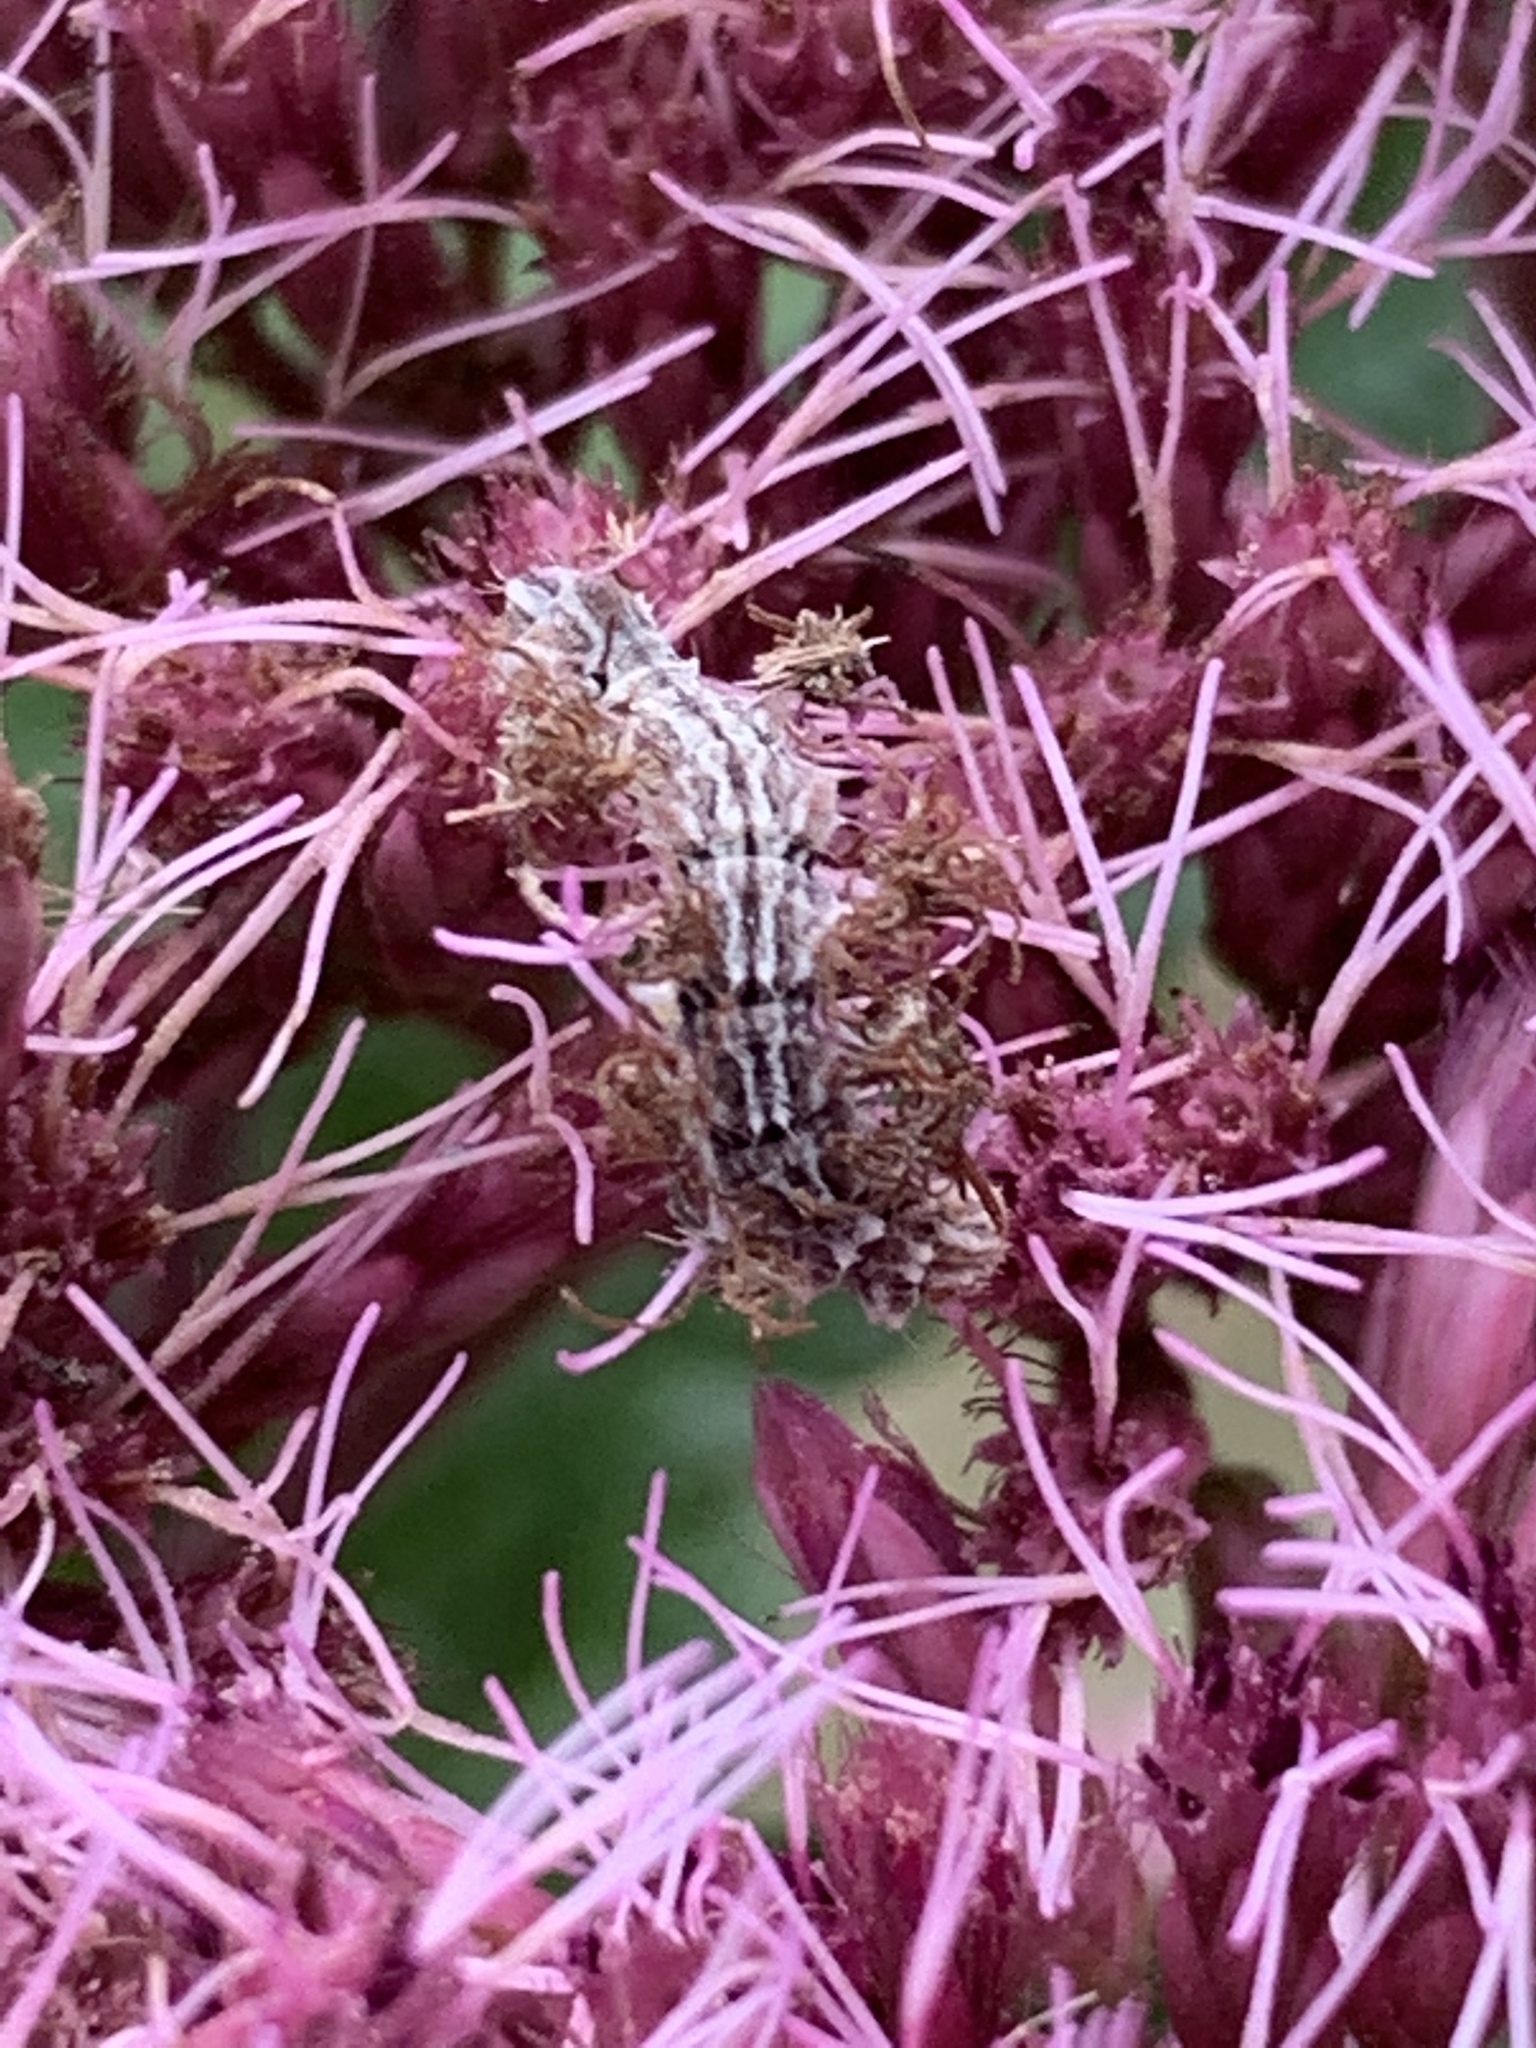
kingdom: Animalia
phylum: Arthropoda
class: Insecta
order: Lepidoptera
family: Geometridae
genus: Synchlora
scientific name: Synchlora aerata
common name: Wavy-lined emerald
